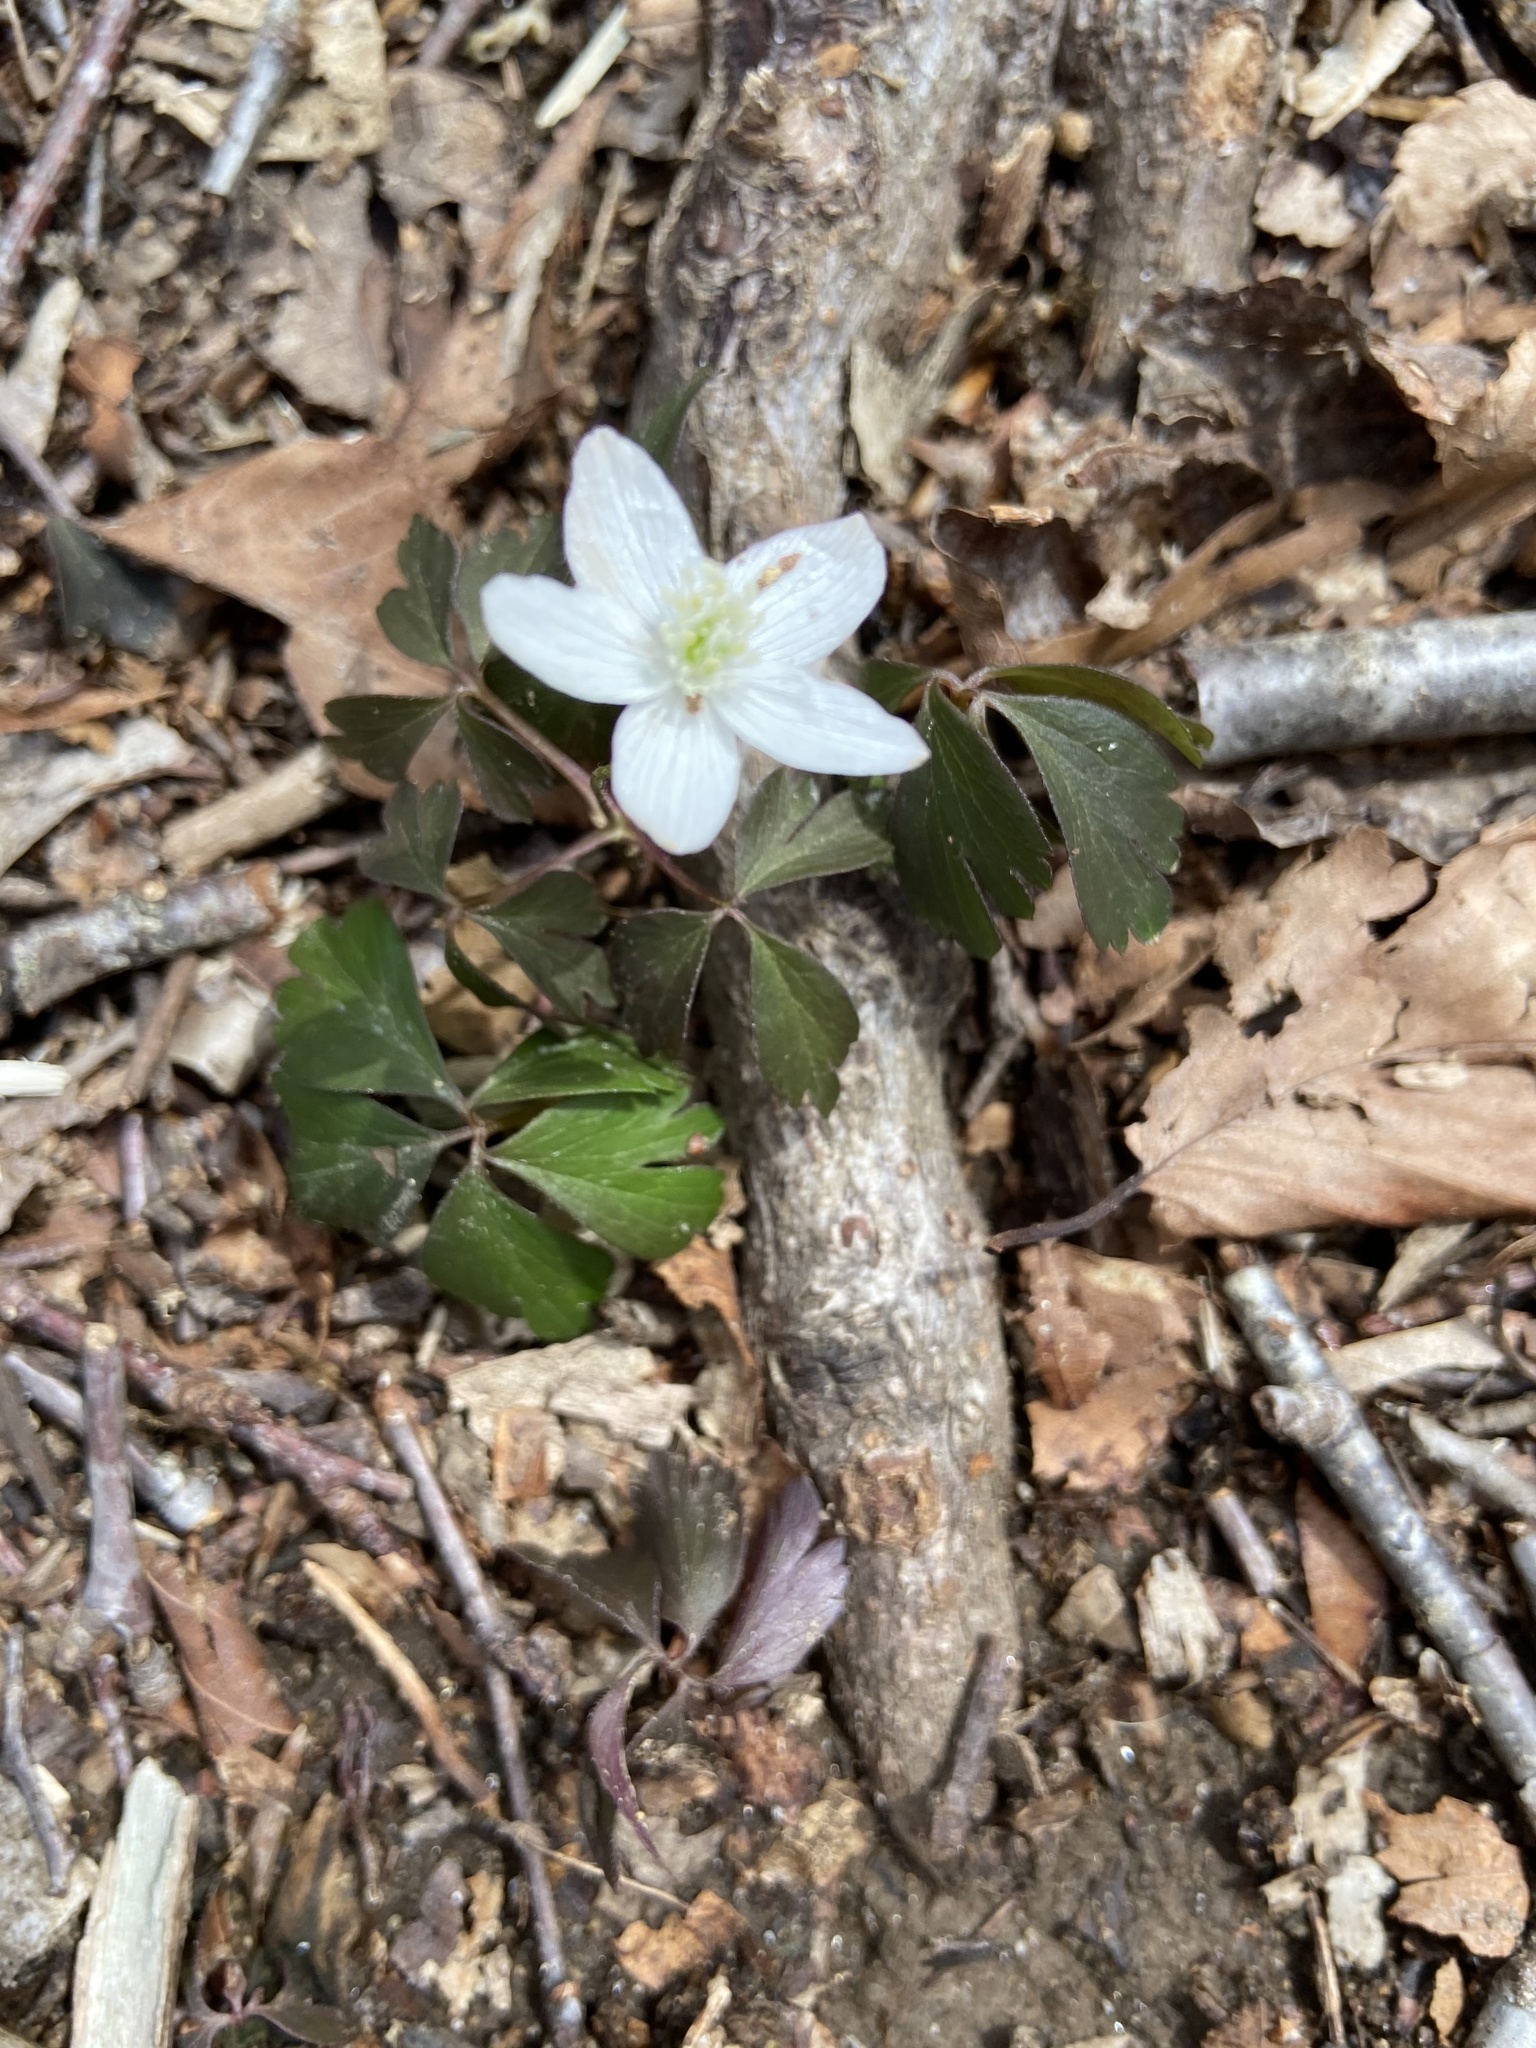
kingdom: Plantae
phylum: Tracheophyta
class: Magnoliopsida
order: Ranunculales
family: Ranunculaceae
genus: Anemone
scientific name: Anemone quinquefolia
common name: Wood anemone
